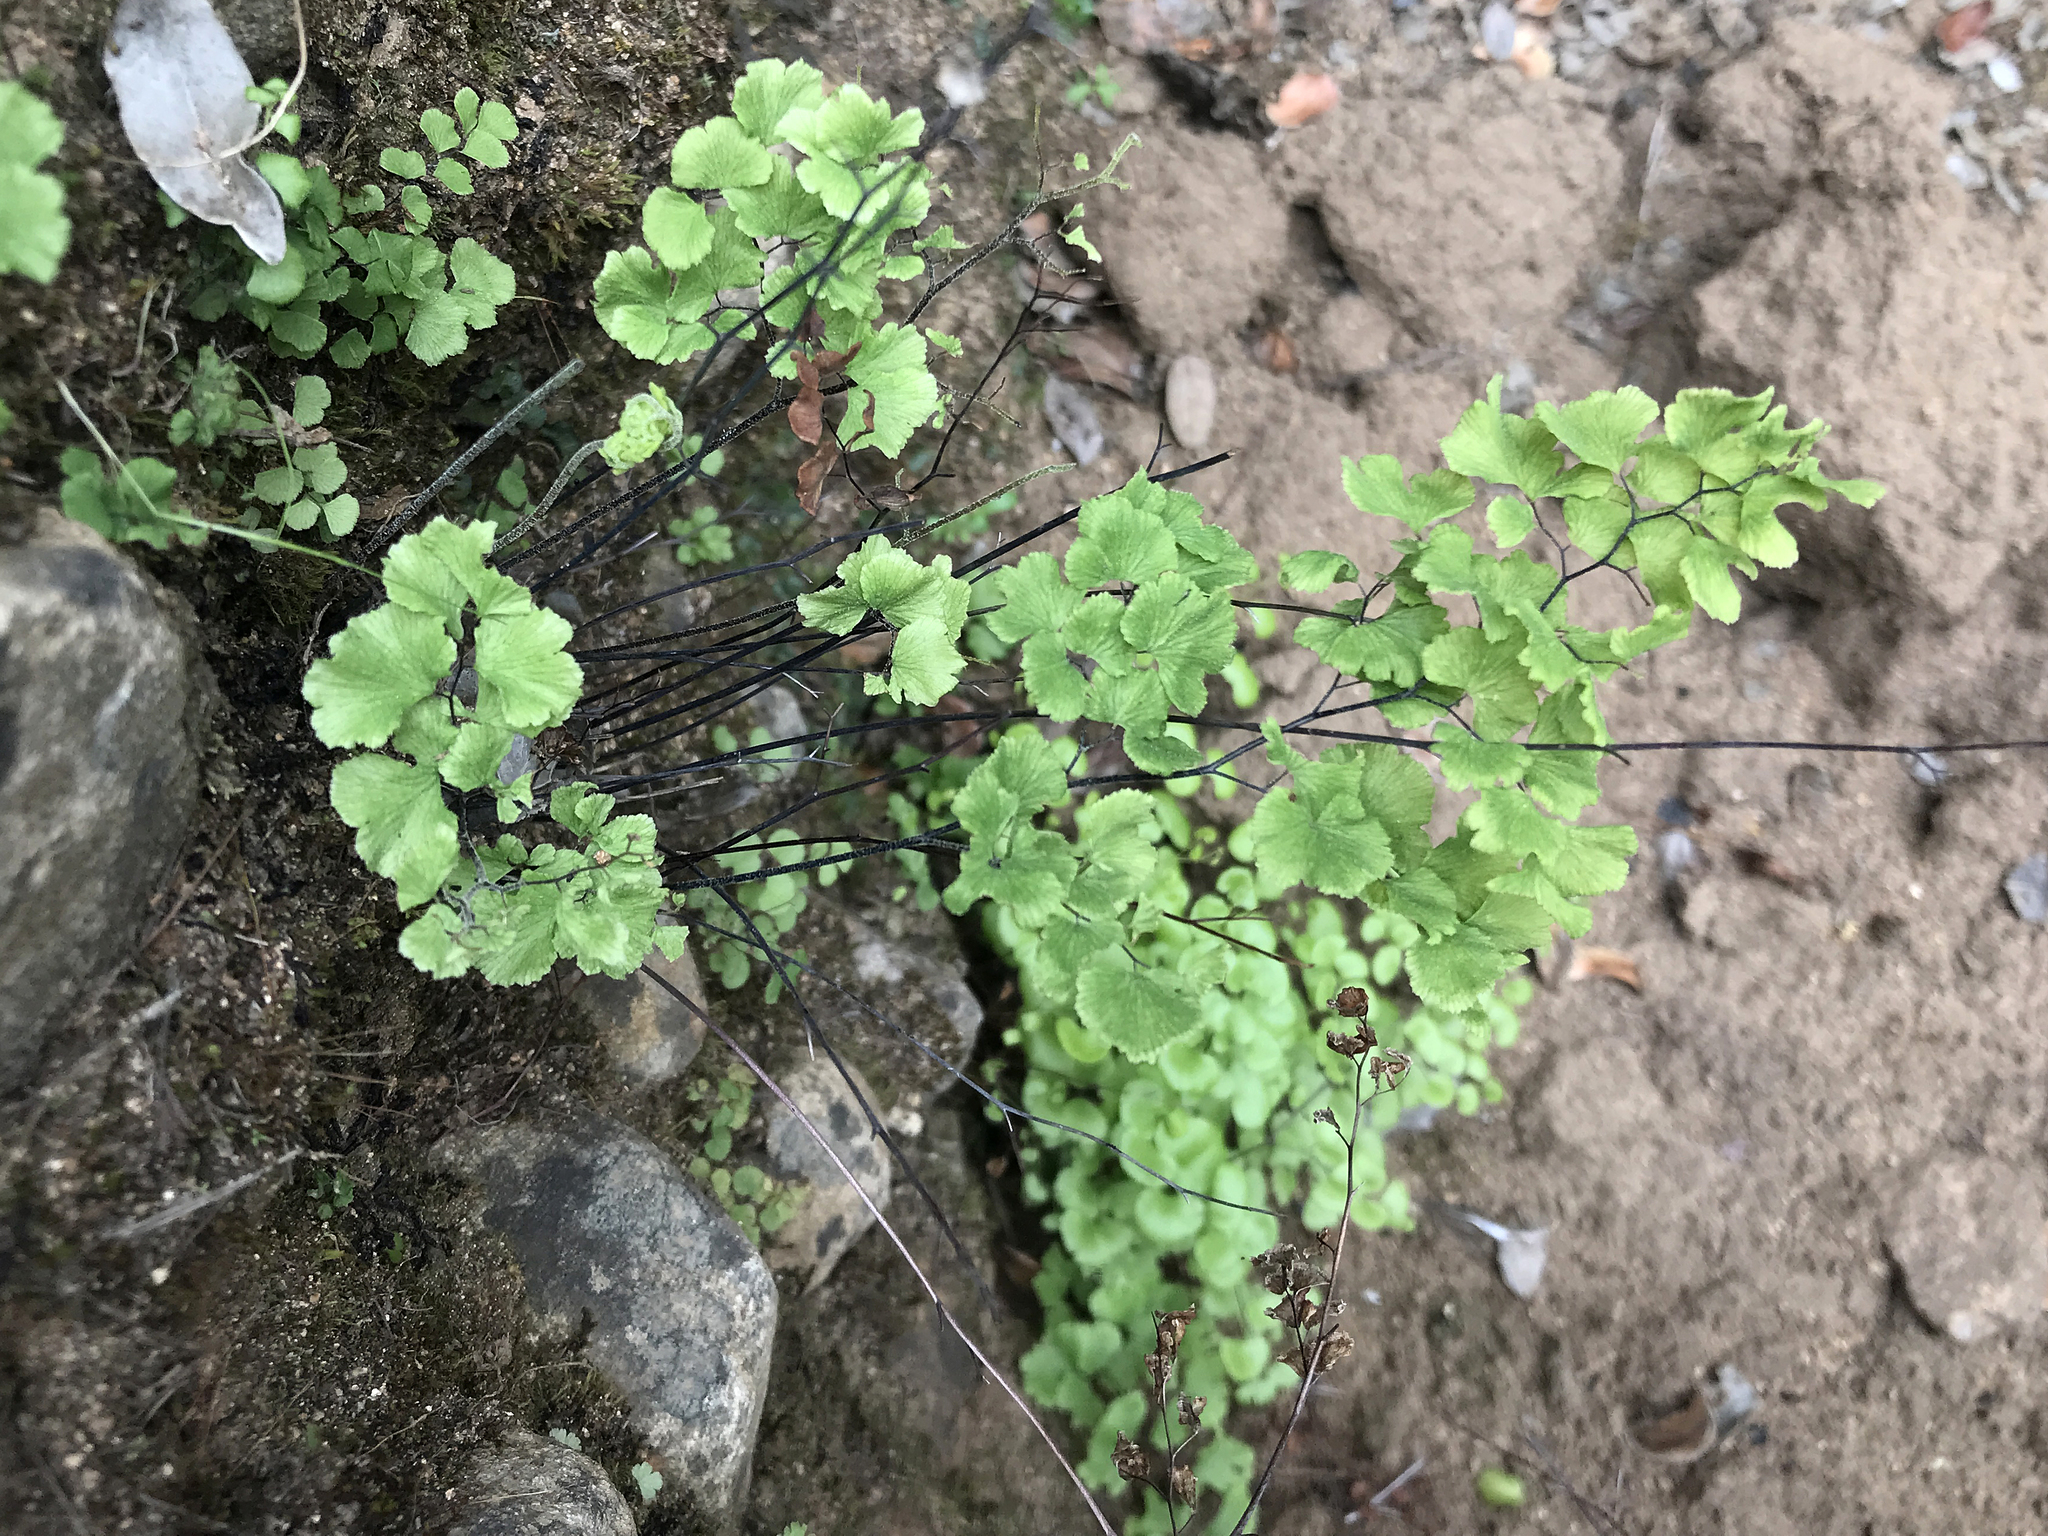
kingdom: Plantae
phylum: Tracheophyta
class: Polypodiopsida
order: Polypodiales
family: Pteridaceae
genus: Adiantum
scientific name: Adiantum chilense
